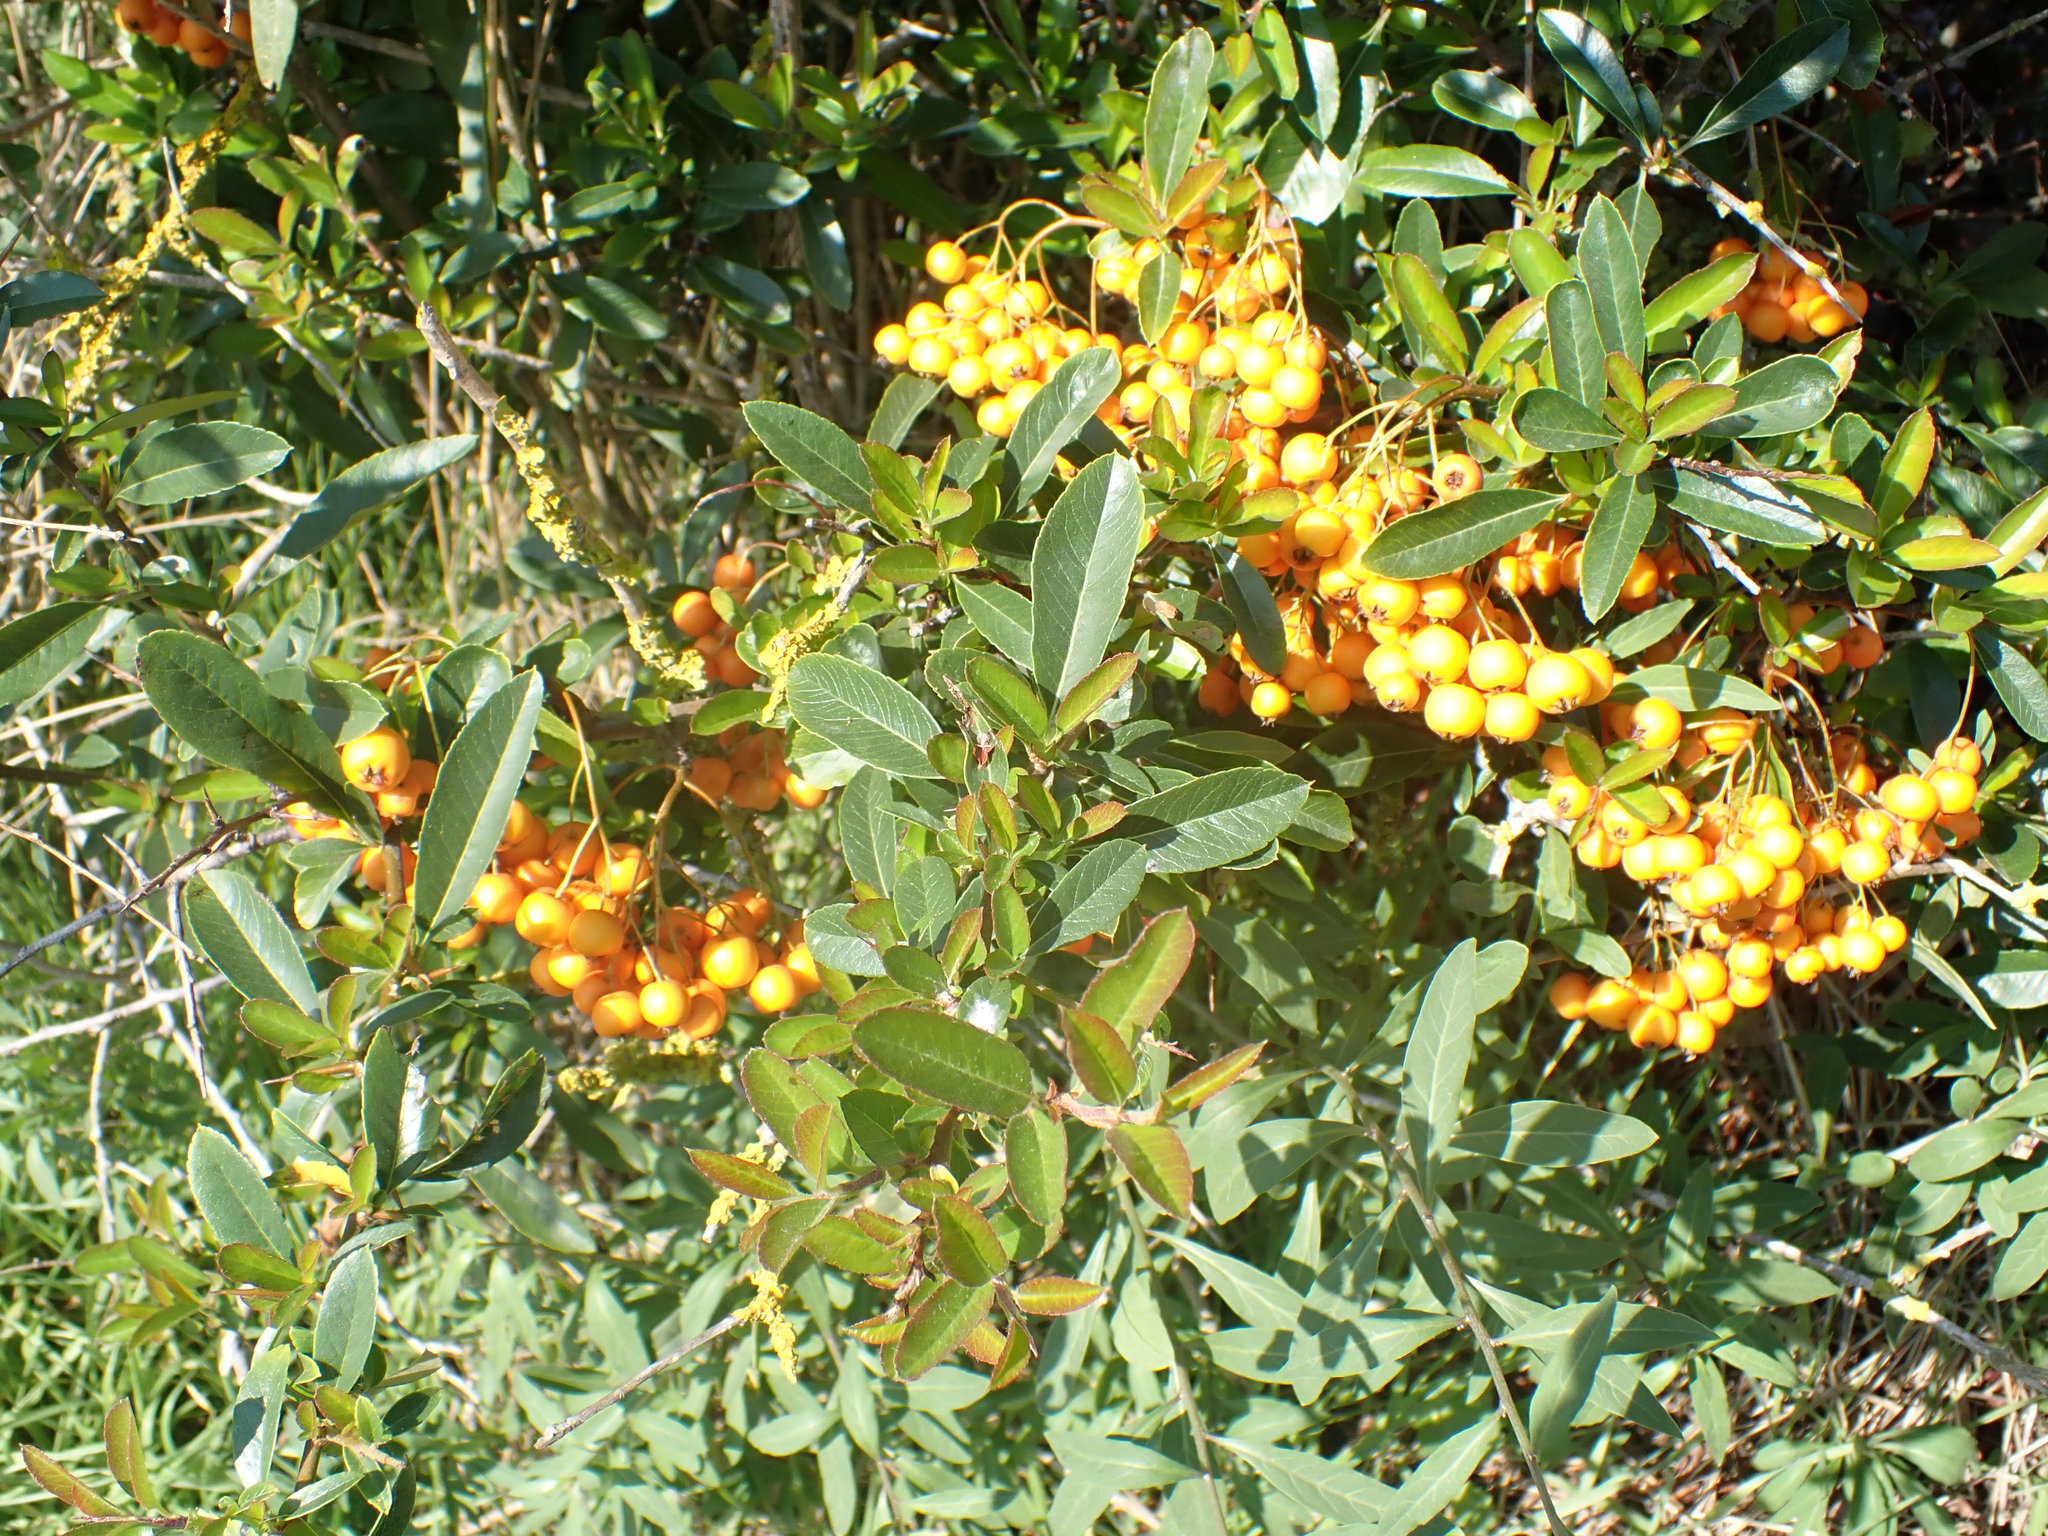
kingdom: Plantae
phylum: Tracheophyta
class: Magnoliopsida
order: Rosales
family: Rosaceae
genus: Pyracantha
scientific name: Pyracantha coccinea
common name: Firethorn
